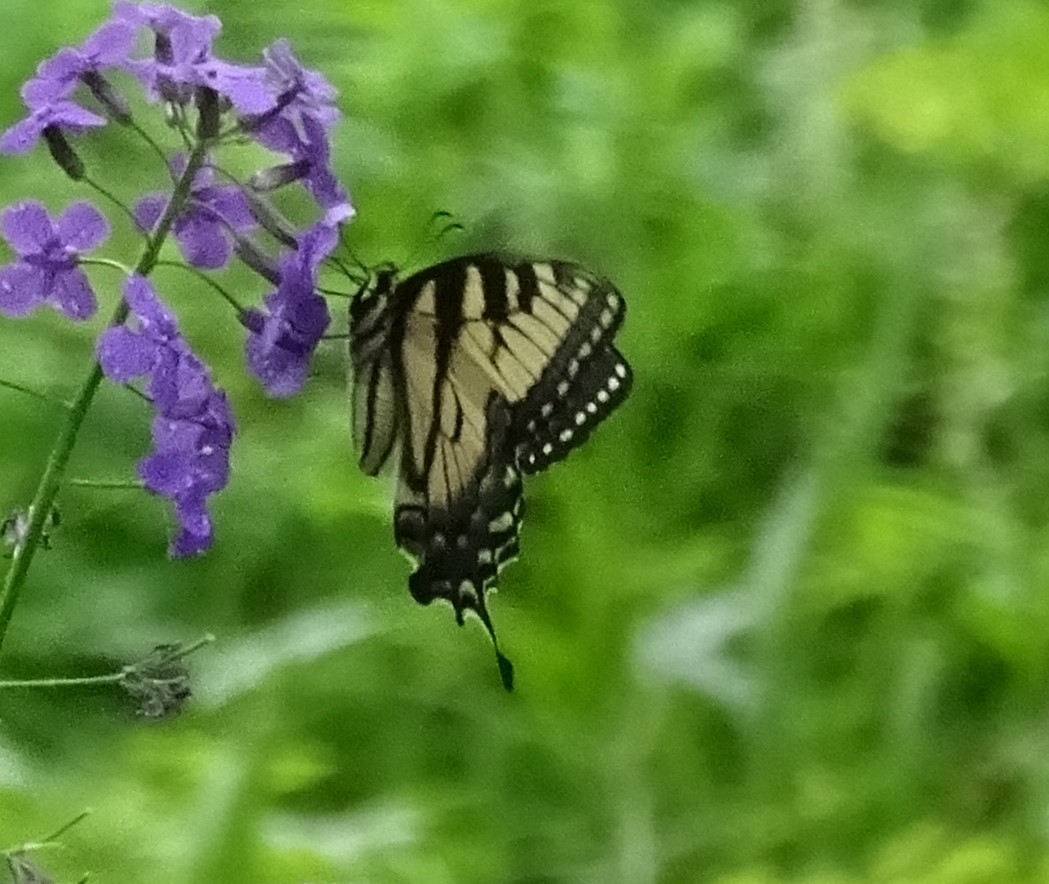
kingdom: Animalia
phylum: Arthropoda
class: Insecta
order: Lepidoptera
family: Papilionidae
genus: Papilio
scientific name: Papilio glaucus
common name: Tiger swallowtail
